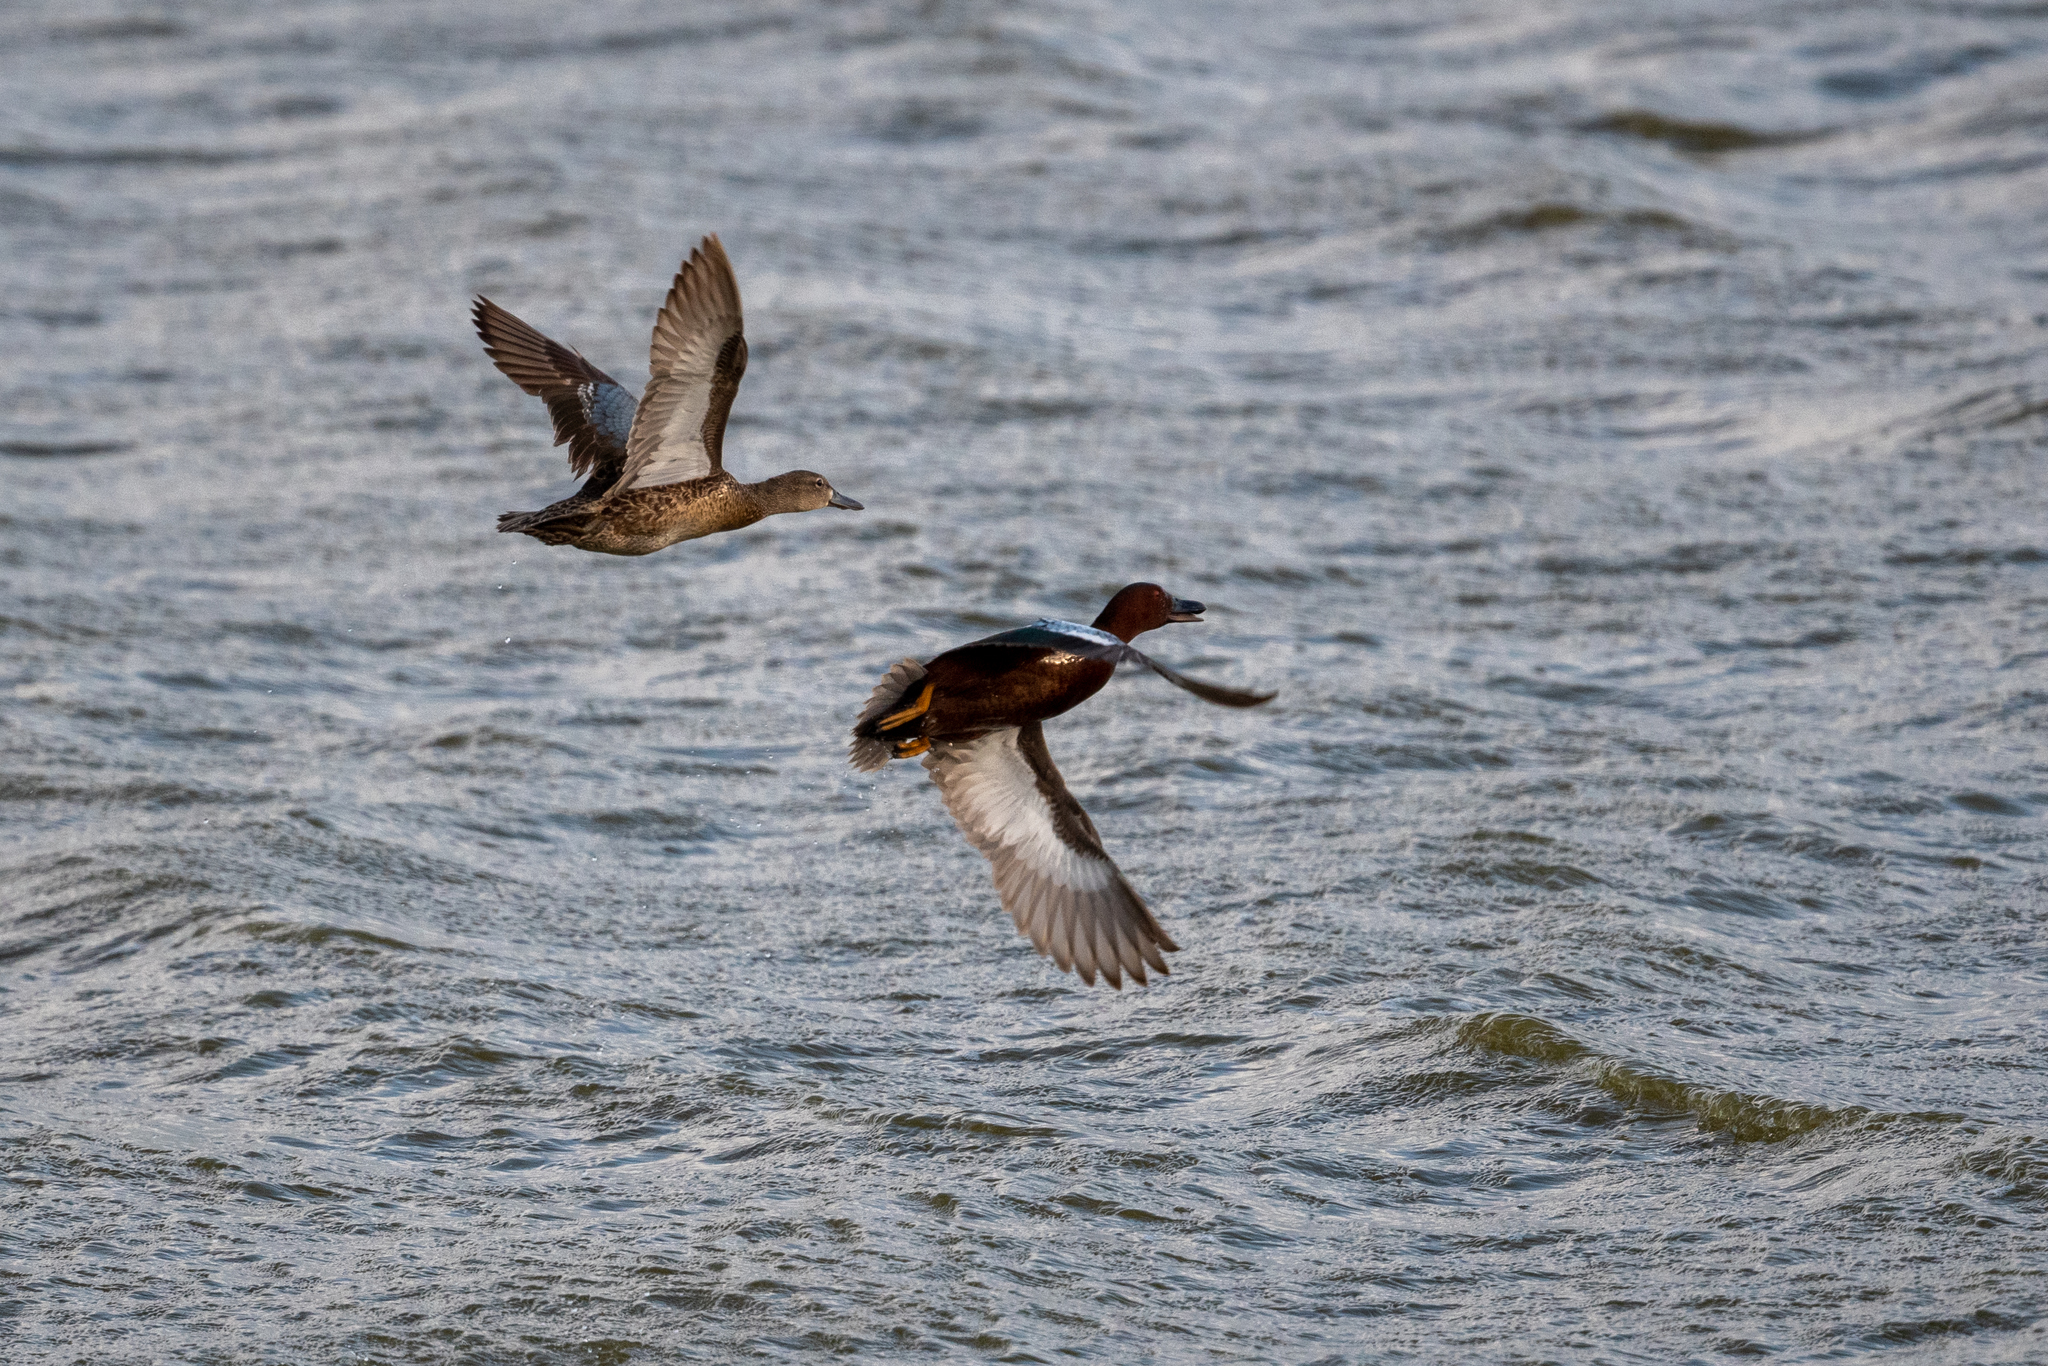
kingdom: Animalia
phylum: Chordata
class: Aves
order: Anseriformes
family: Anatidae
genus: Spatula
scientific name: Spatula cyanoptera
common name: Cinnamon teal
